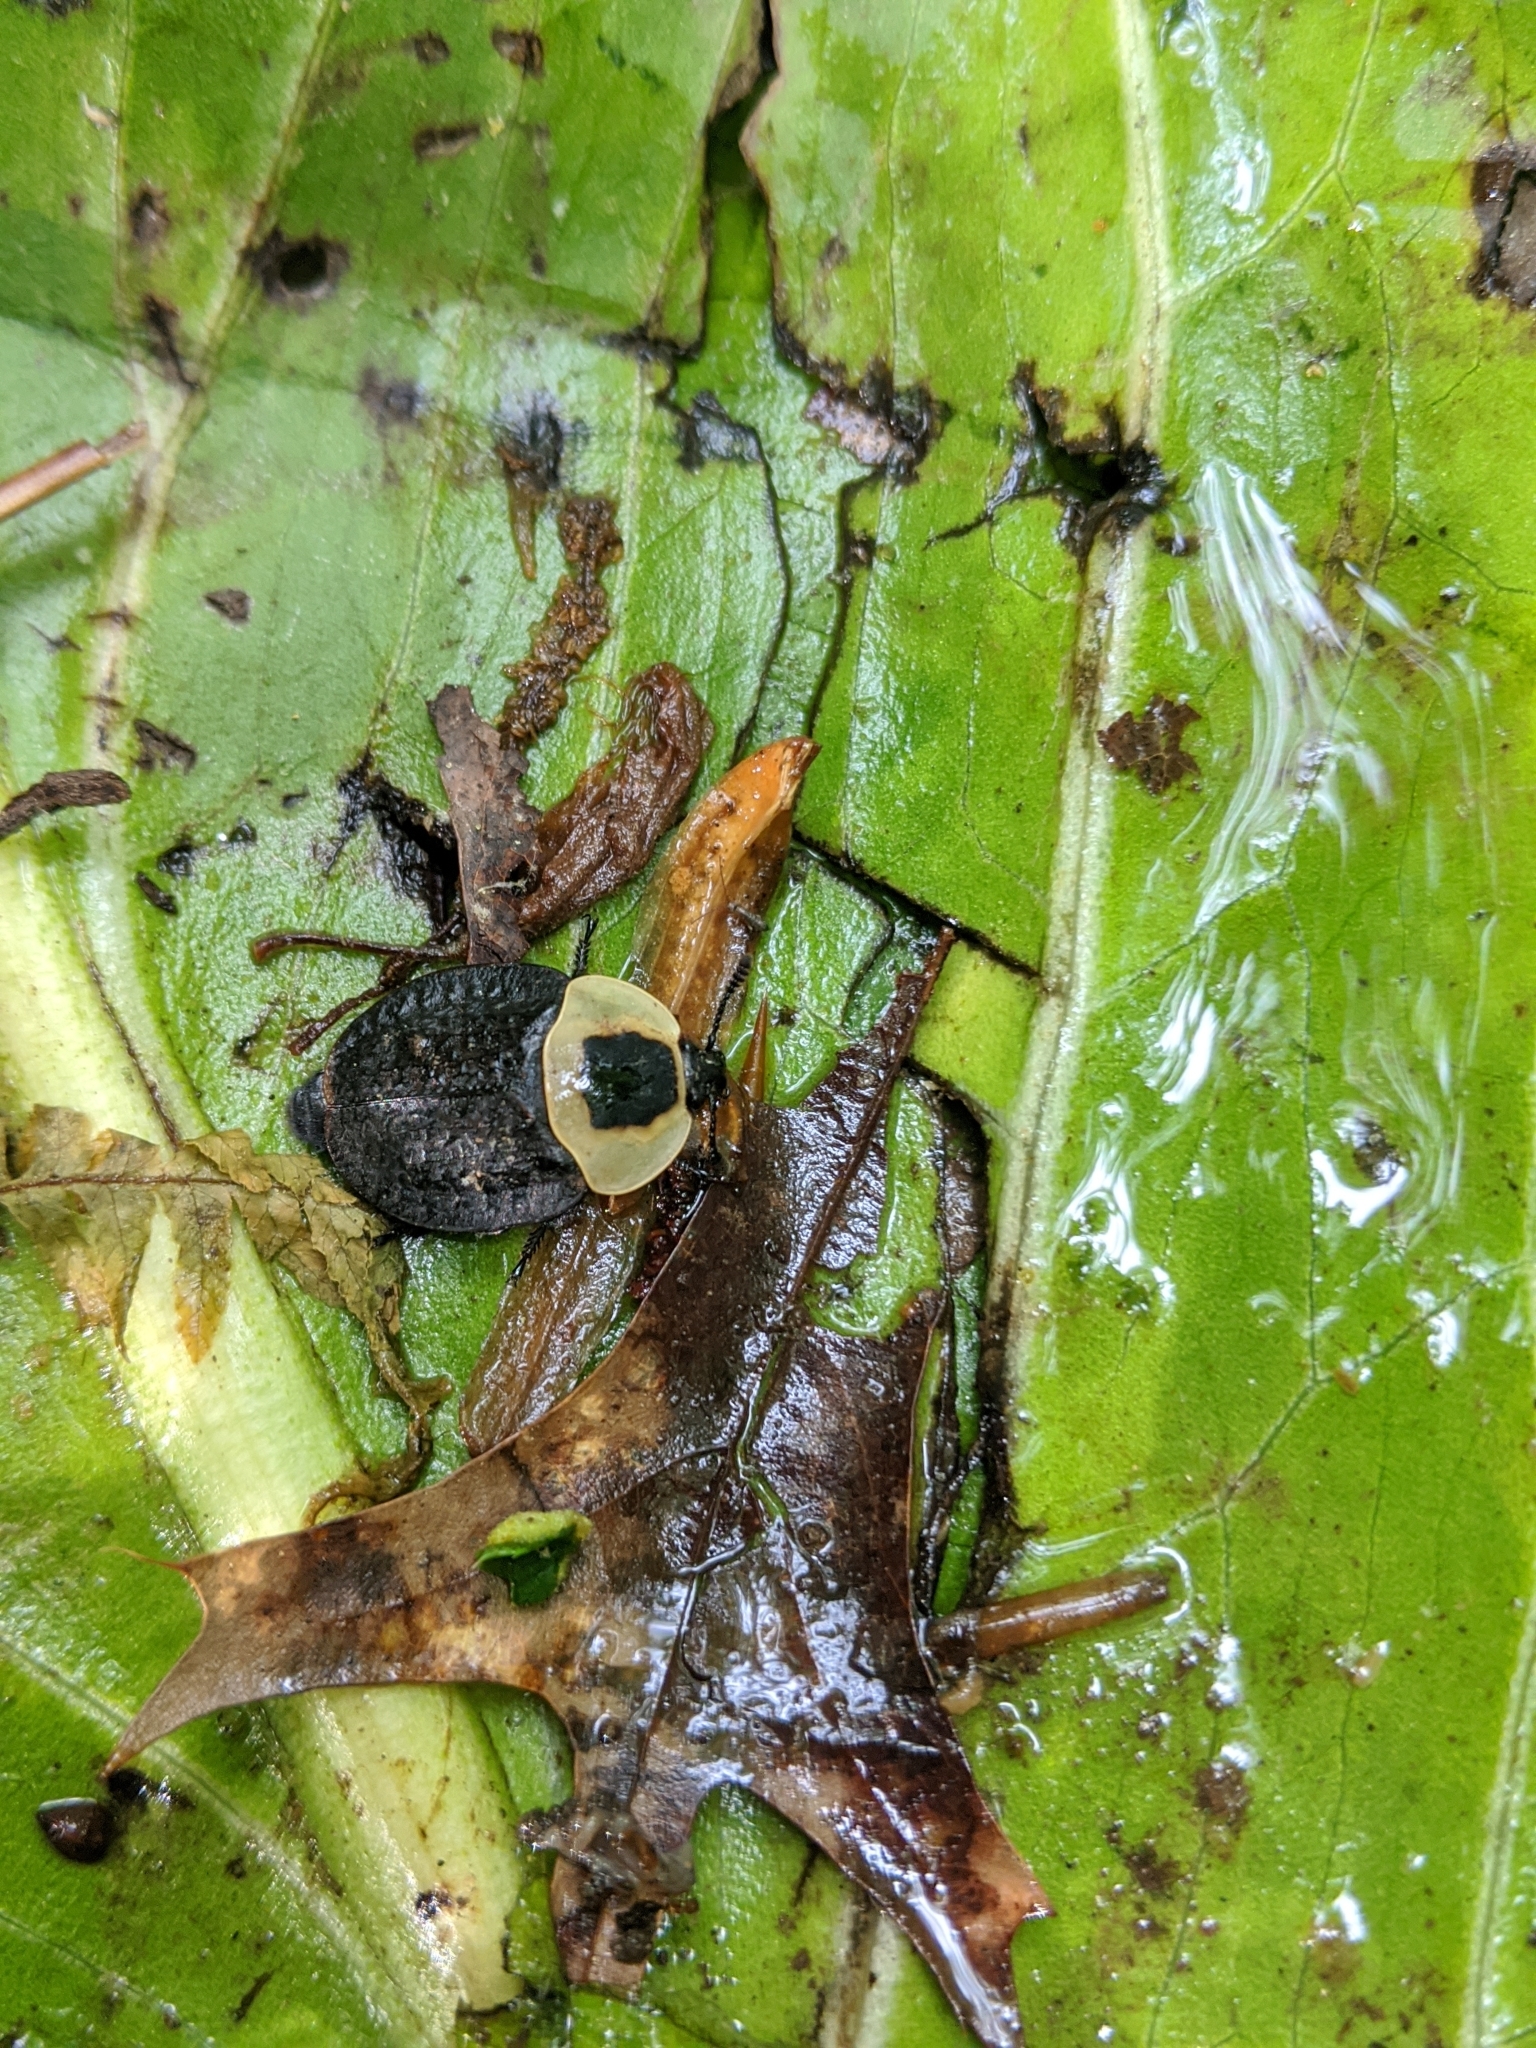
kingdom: Animalia
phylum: Arthropoda
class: Insecta
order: Coleoptera
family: Staphylinidae
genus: Necrophila
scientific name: Necrophila americana
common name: American carrion beetle
